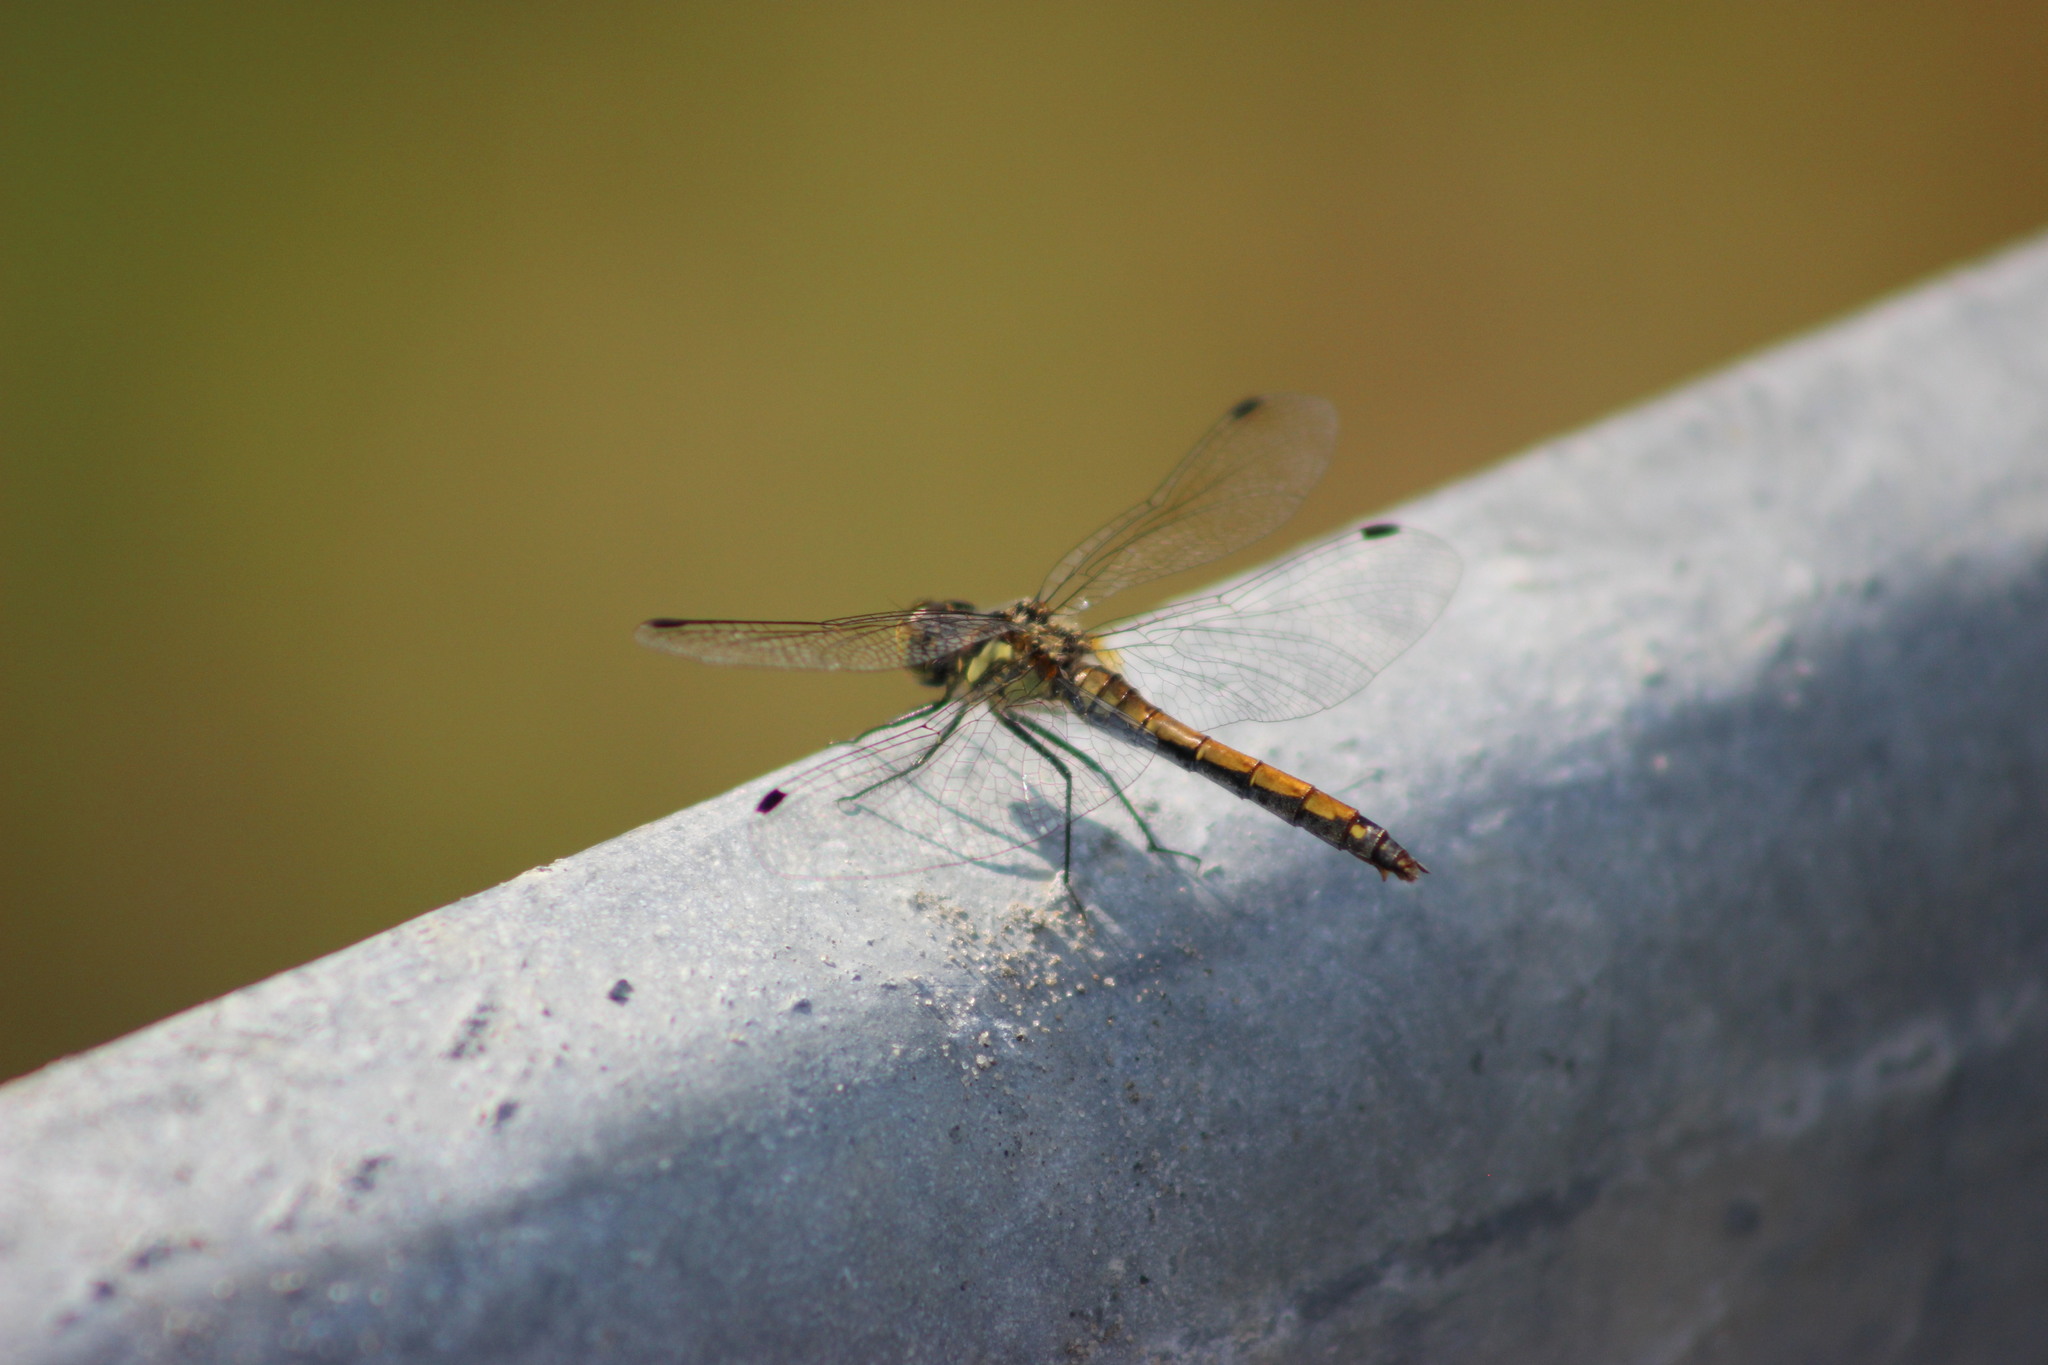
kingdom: Animalia
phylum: Arthropoda
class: Insecta
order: Odonata
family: Libellulidae
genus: Sympetrum
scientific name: Sympetrum danae
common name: Black darter
